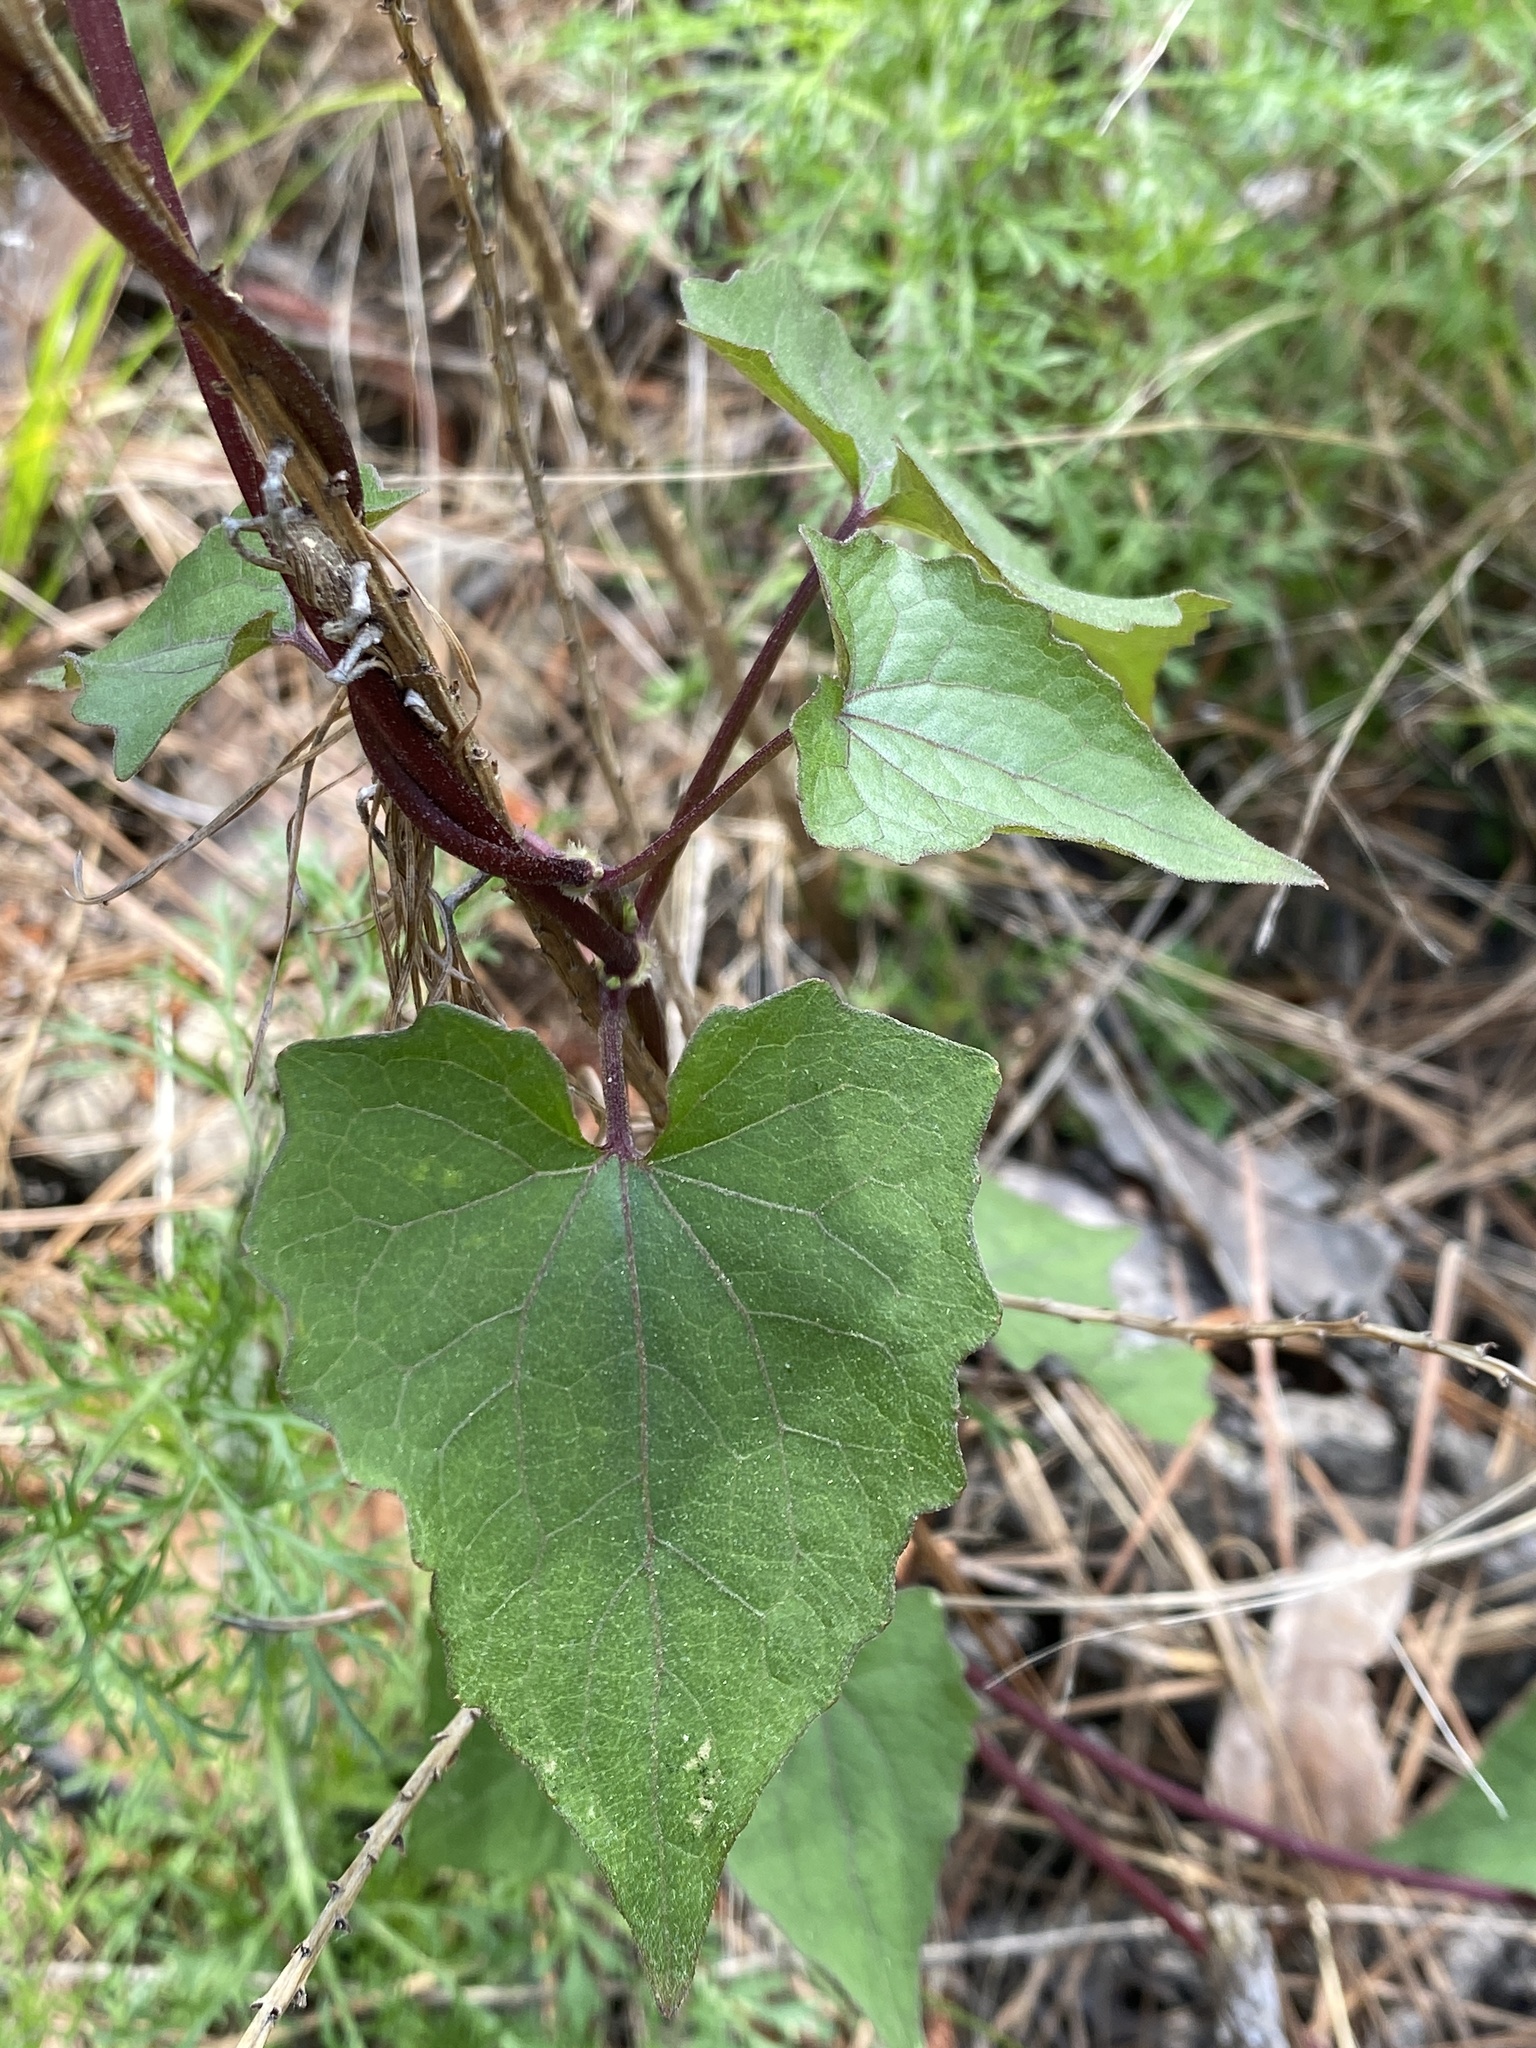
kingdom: Plantae
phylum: Tracheophyta
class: Magnoliopsida
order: Asterales
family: Asteraceae
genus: Mikania
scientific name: Mikania scandens
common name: Climbing hempvine
